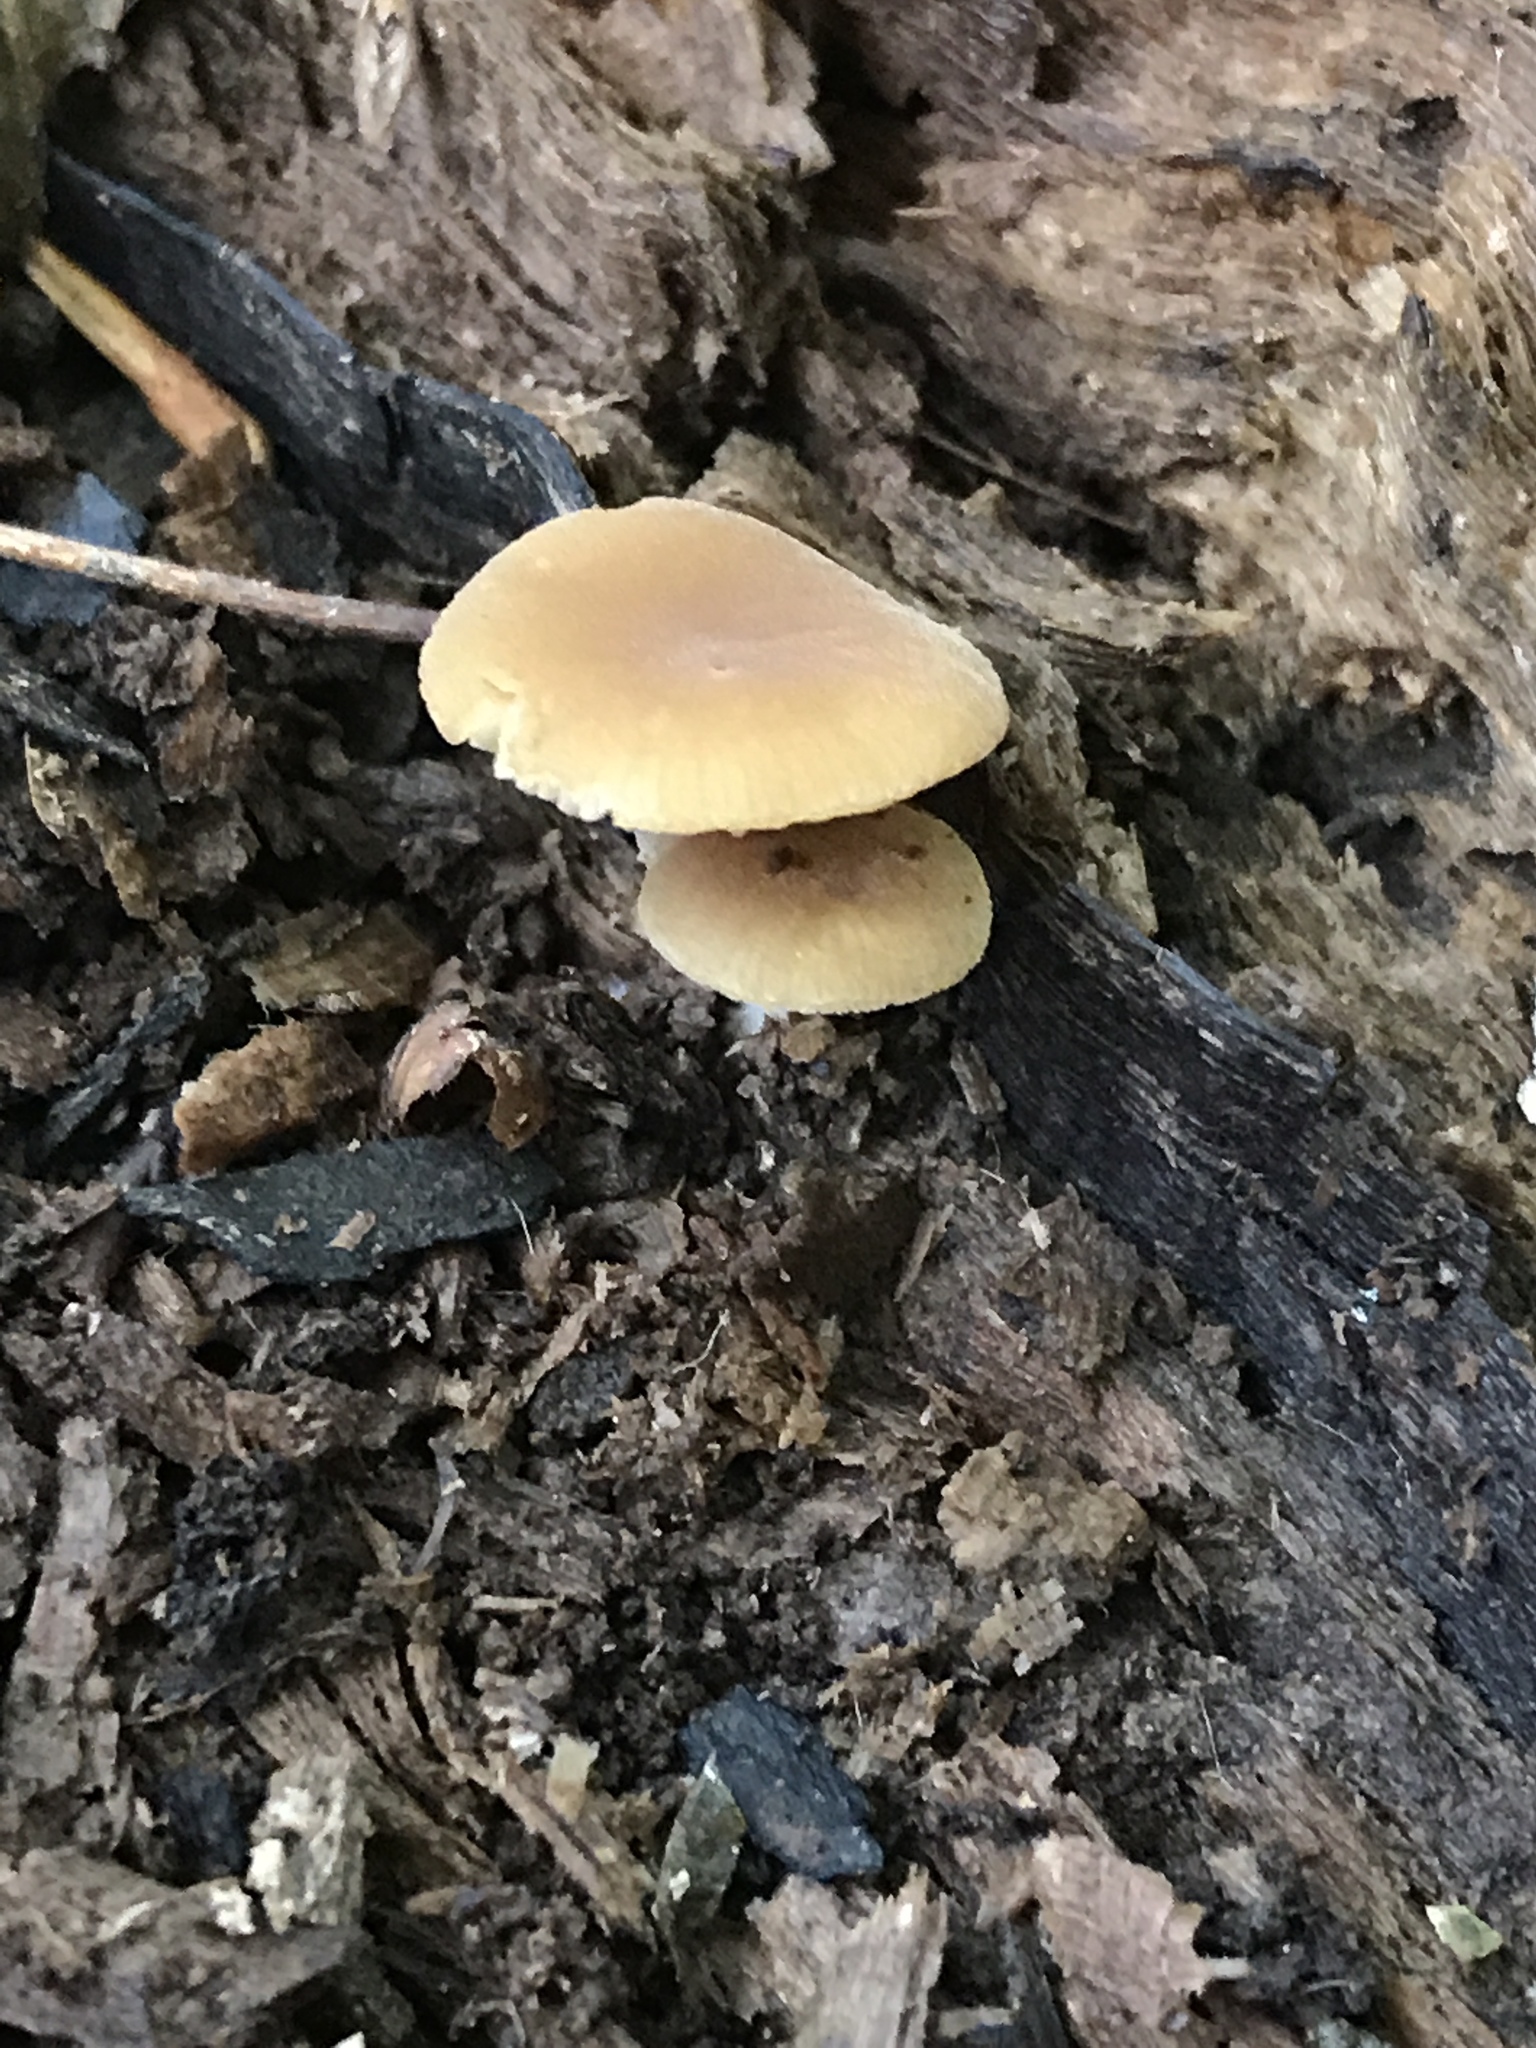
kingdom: Fungi
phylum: Basidiomycota
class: Agaricomycetes
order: Agaricales
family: Crepidotaceae
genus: Simocybe
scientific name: Simocybe serrulata
